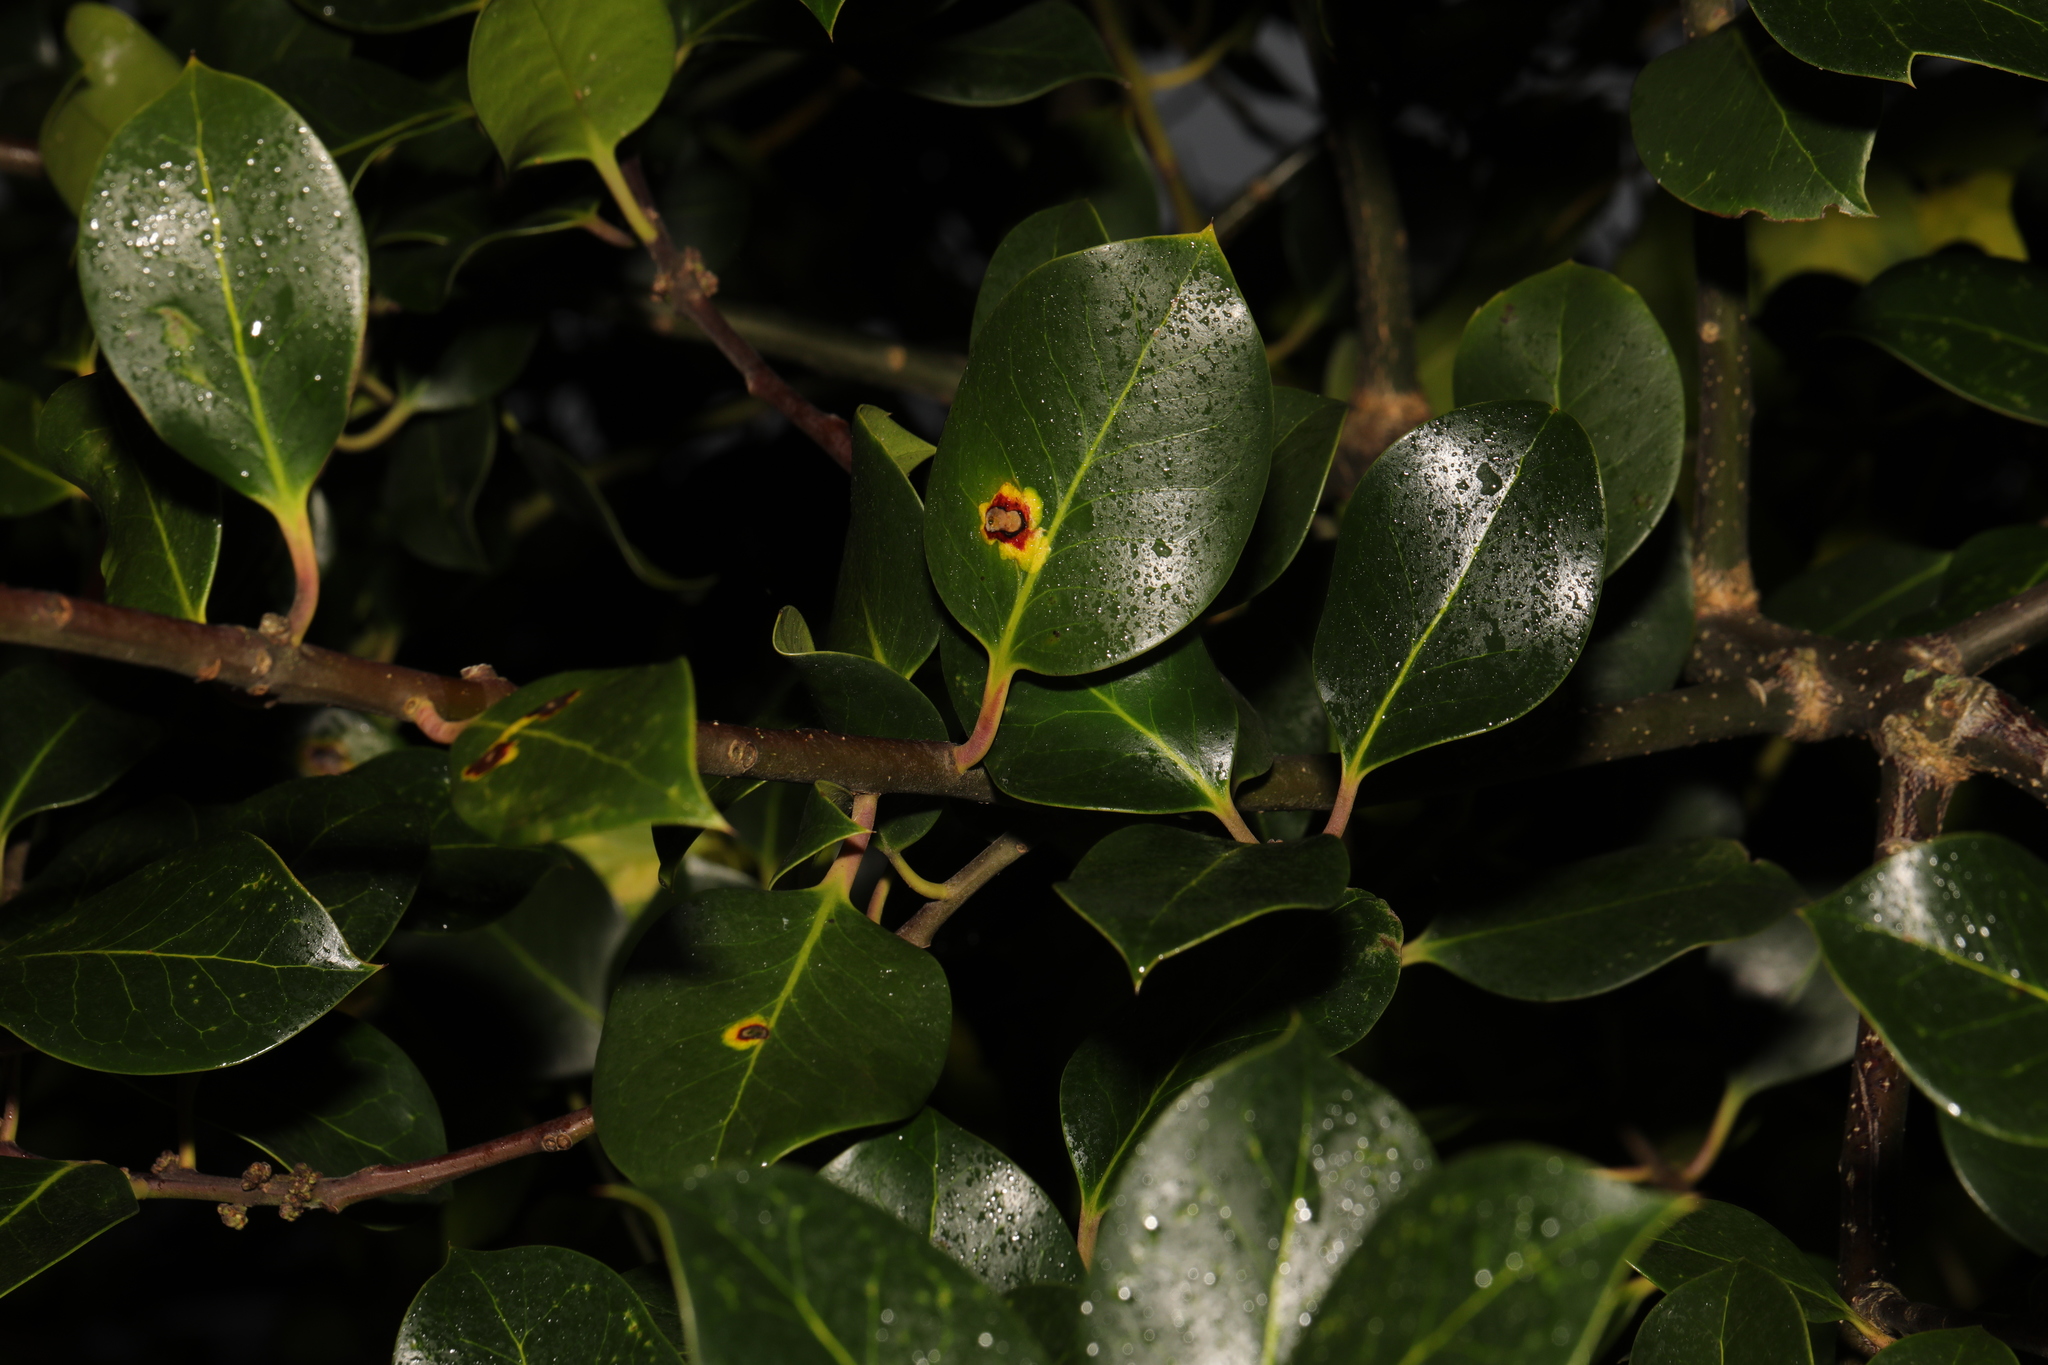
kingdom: Animalia
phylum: Arthropoda
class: Insecta
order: Diptera
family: Agromyzidae
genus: Phytomyza
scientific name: Phytomyza ilicis
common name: Holly leafminer
